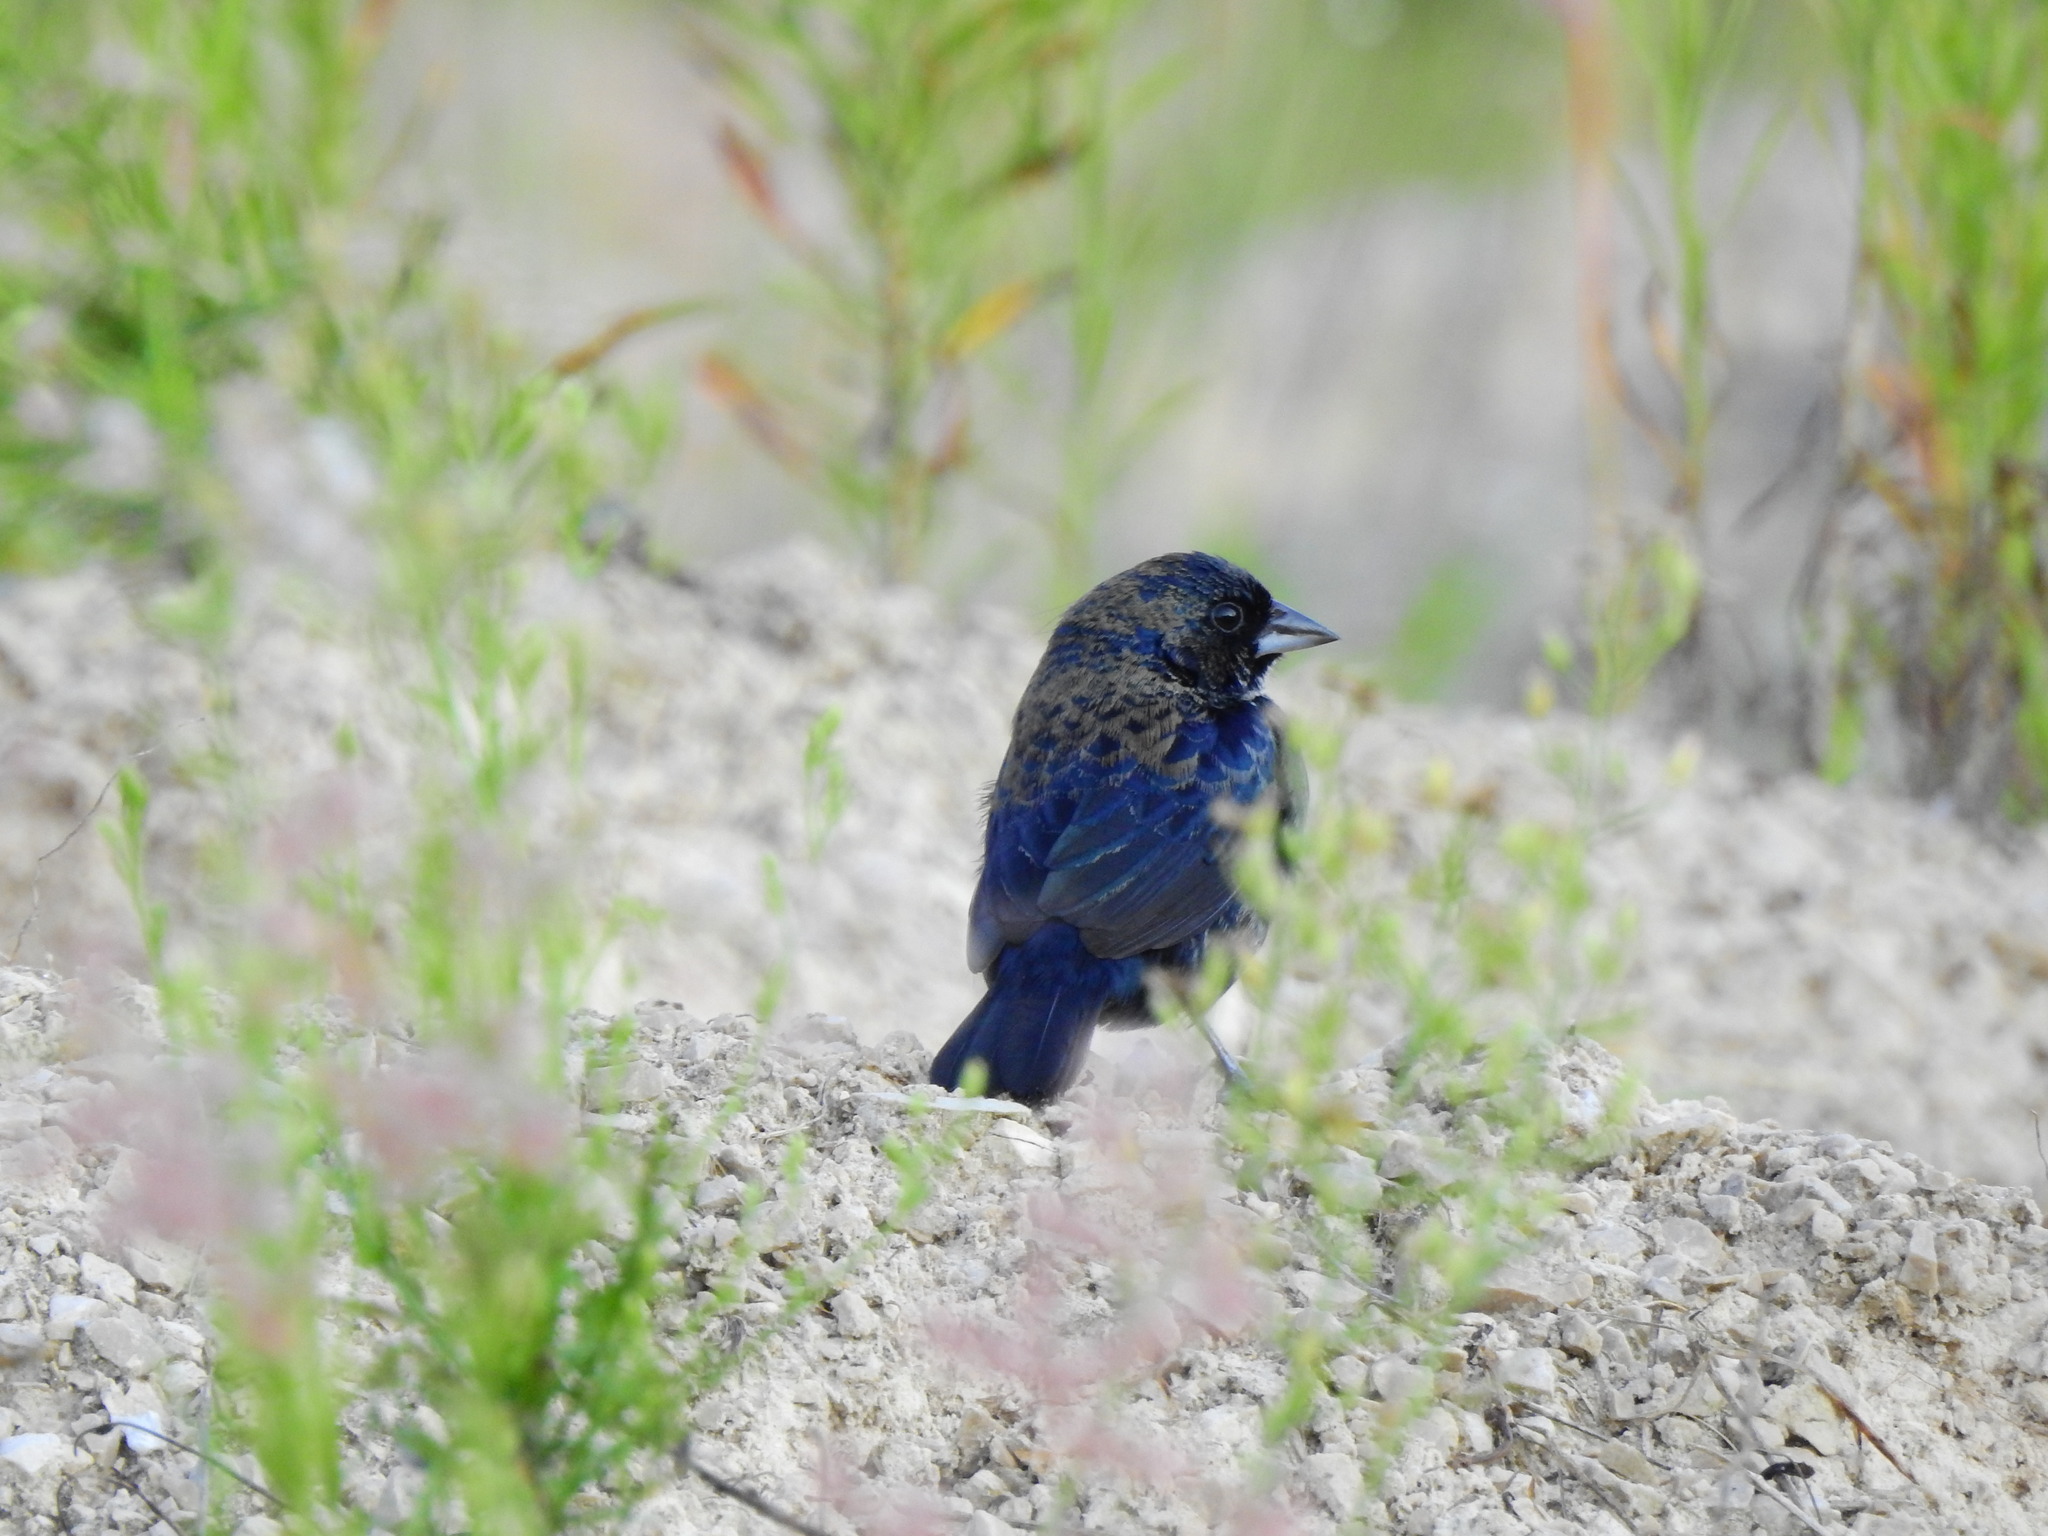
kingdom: Animalia
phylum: Chordata
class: Aves
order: Passeriformes
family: Thraupidae
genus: Volatinia
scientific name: Volatinia jacarina
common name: Blue-black grassquit
